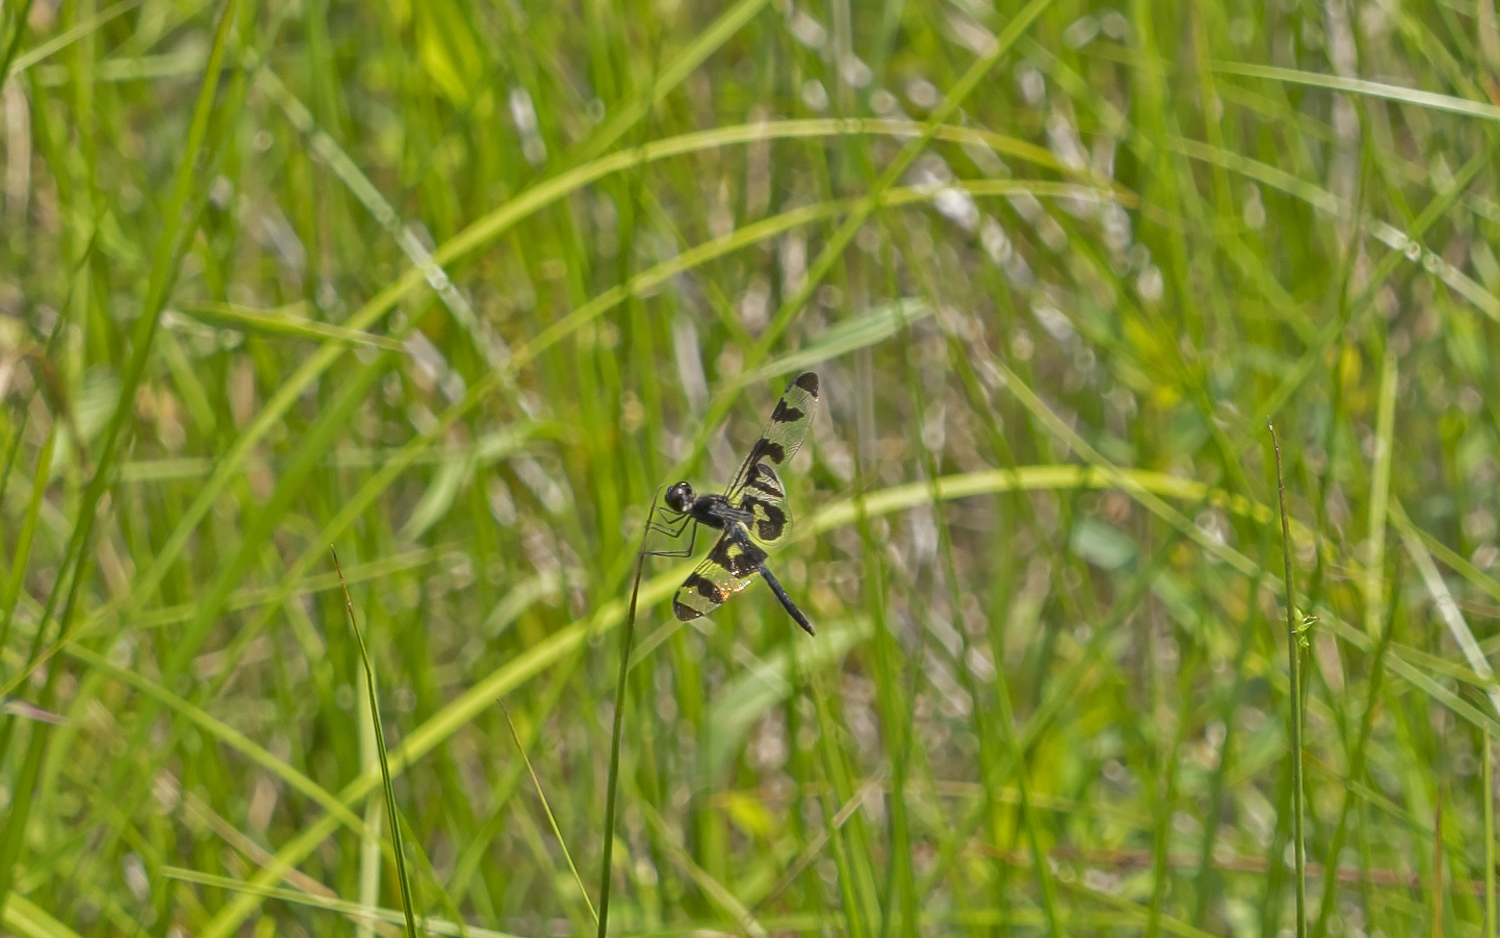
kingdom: Animalia
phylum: Arthropoda
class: Insecta
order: Odonata
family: Libellulidae
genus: Celithemis
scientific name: Celithemis fasciata
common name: Banded pennant
